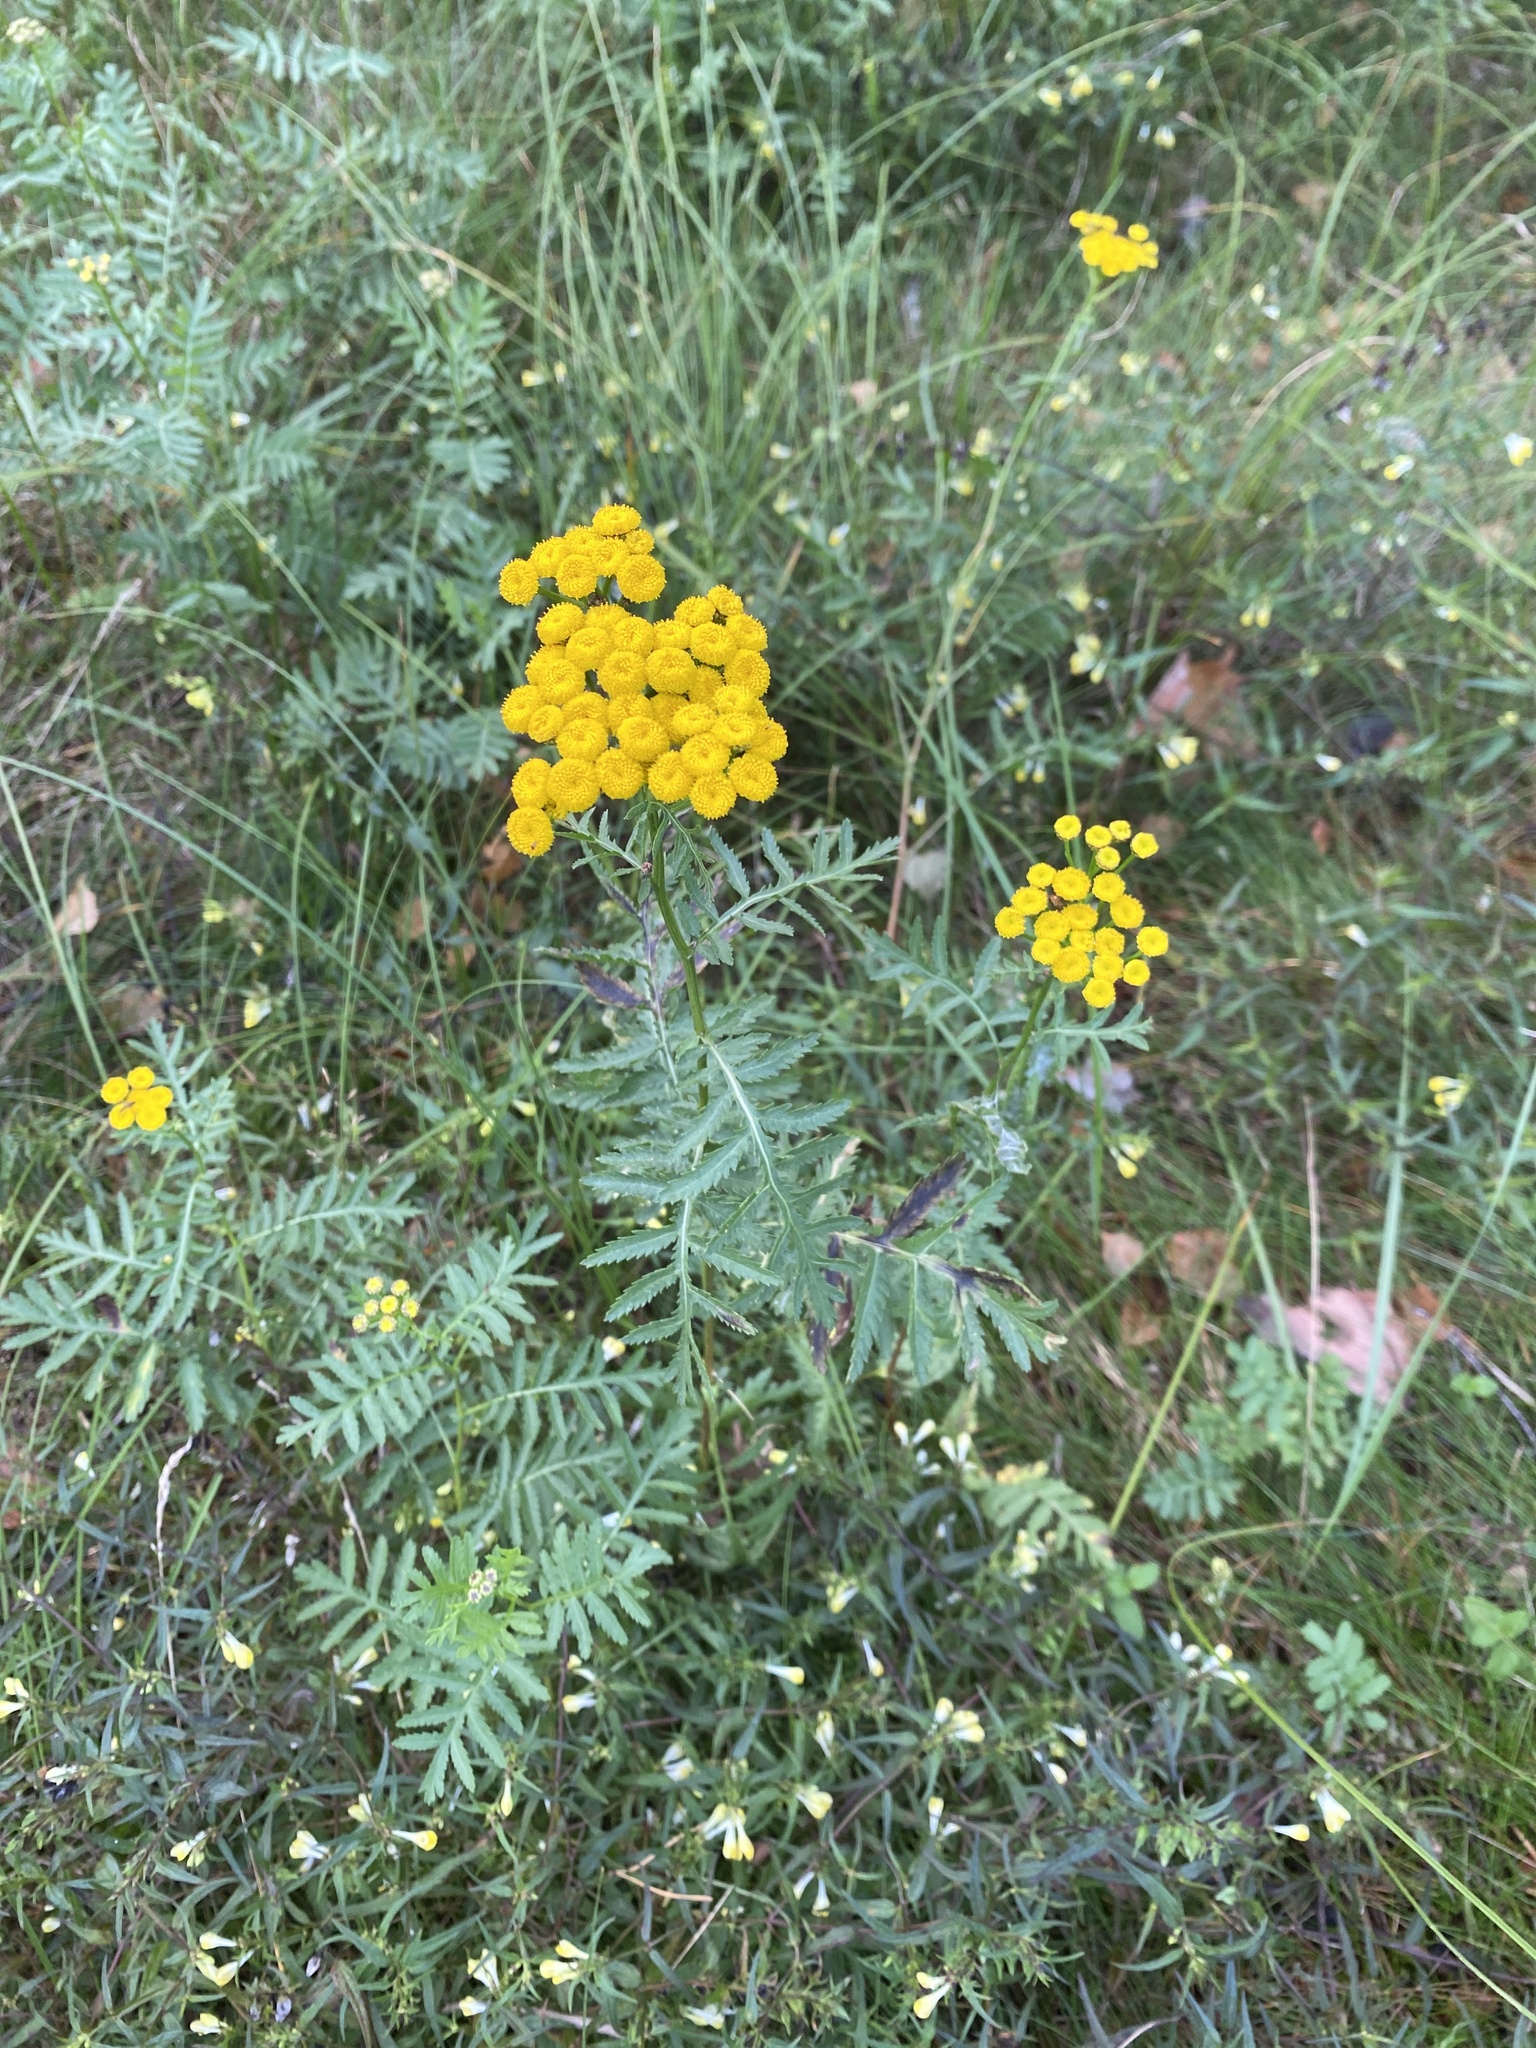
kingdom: Plantae
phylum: Tracheophyta
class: Magnoliopsida
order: Asterales
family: Asteraceae
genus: Tanacetum
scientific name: Tanacetum vulgare
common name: Common tansy
